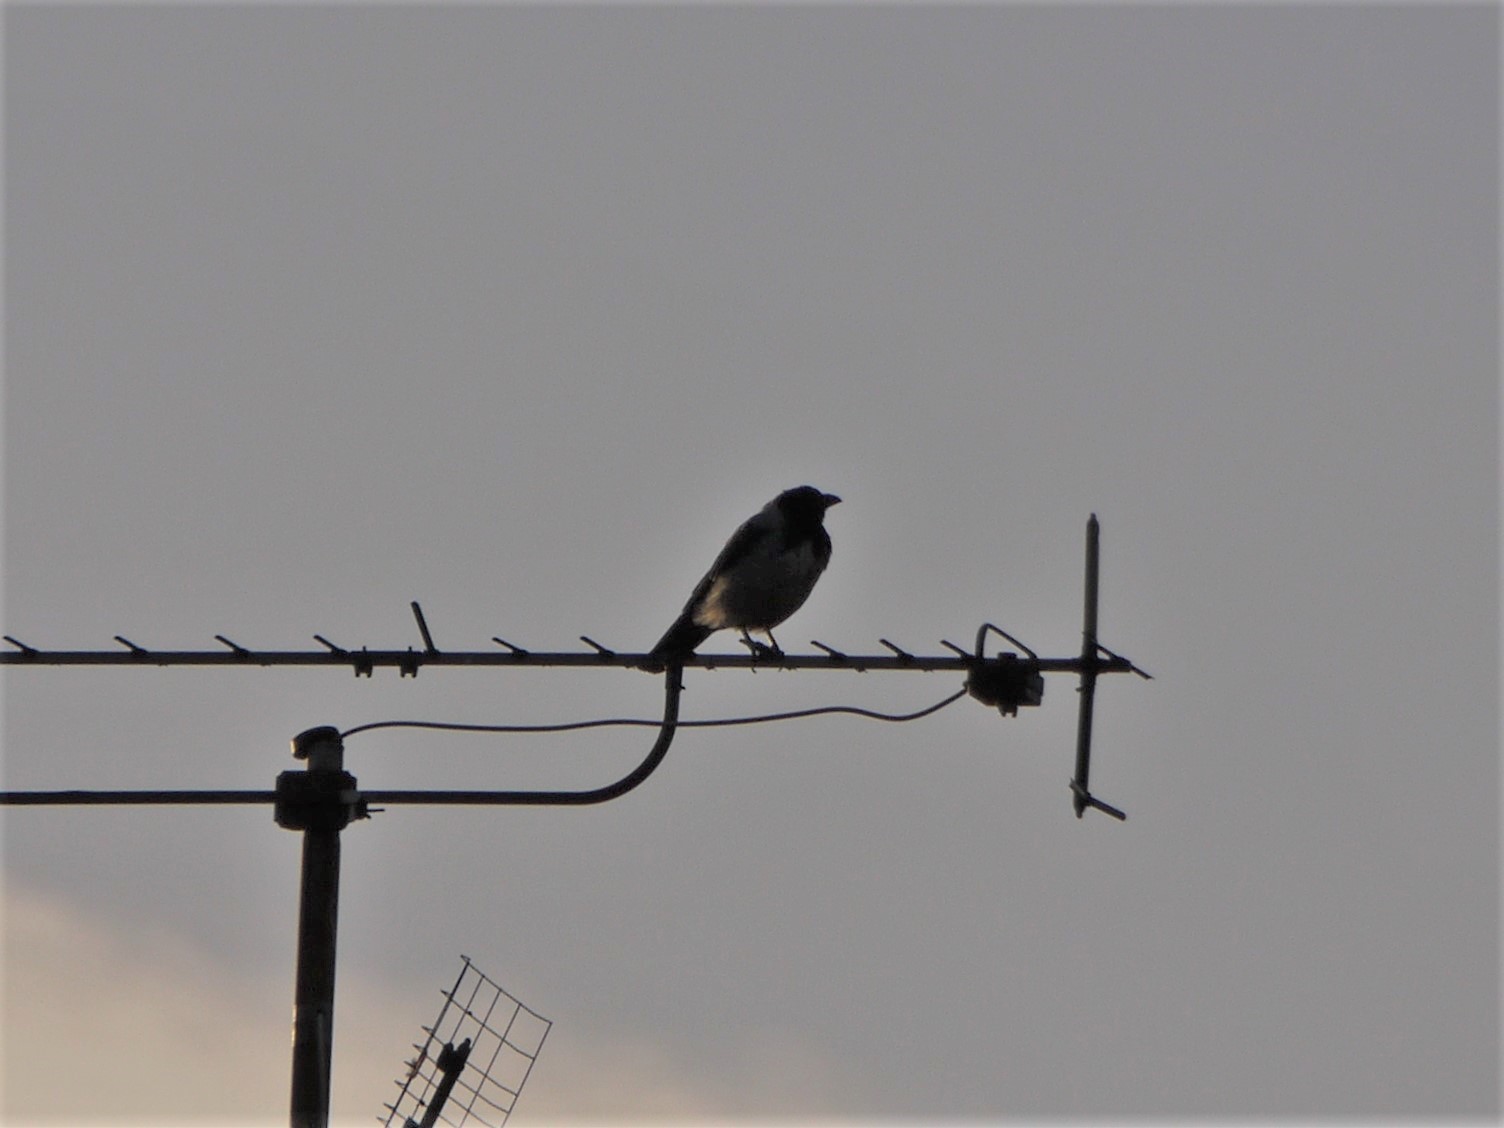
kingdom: Animalia
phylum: Chordata
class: Aves
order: Passeriformes
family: Corvidae
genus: Corvus
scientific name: Corvus cornix
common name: Hooded crow
